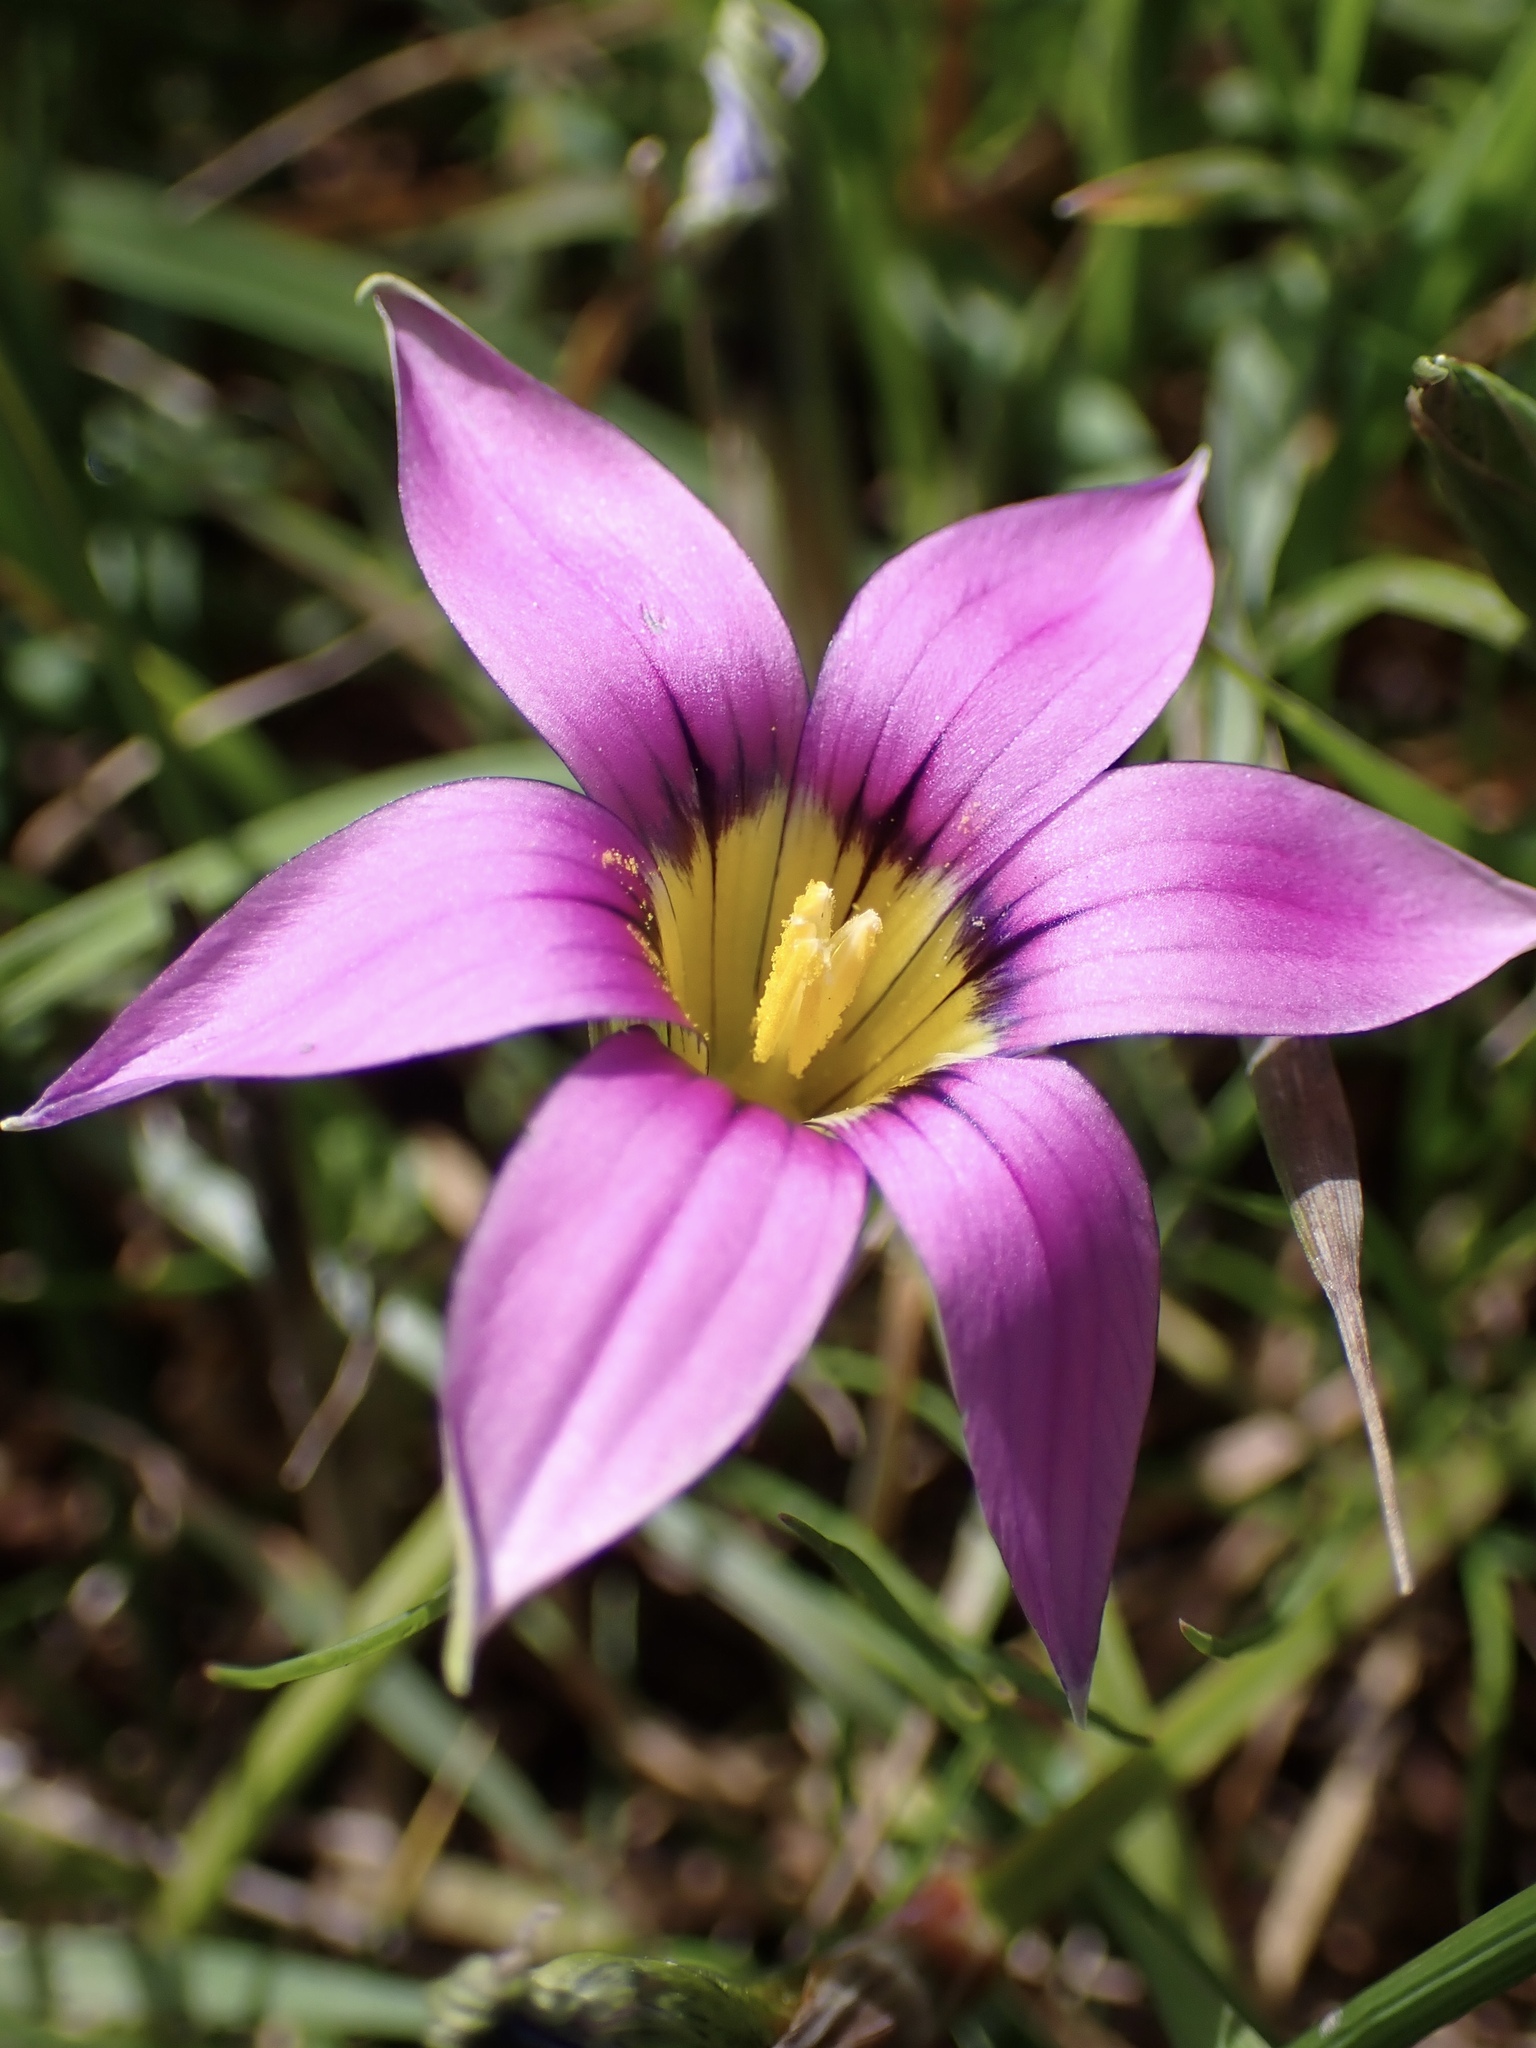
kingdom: Plantae
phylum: Tracheophyta
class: Liliopsida
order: Asparagales
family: Iridaceae
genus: Romulea
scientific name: Romulea rosea
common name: Oniongrass
